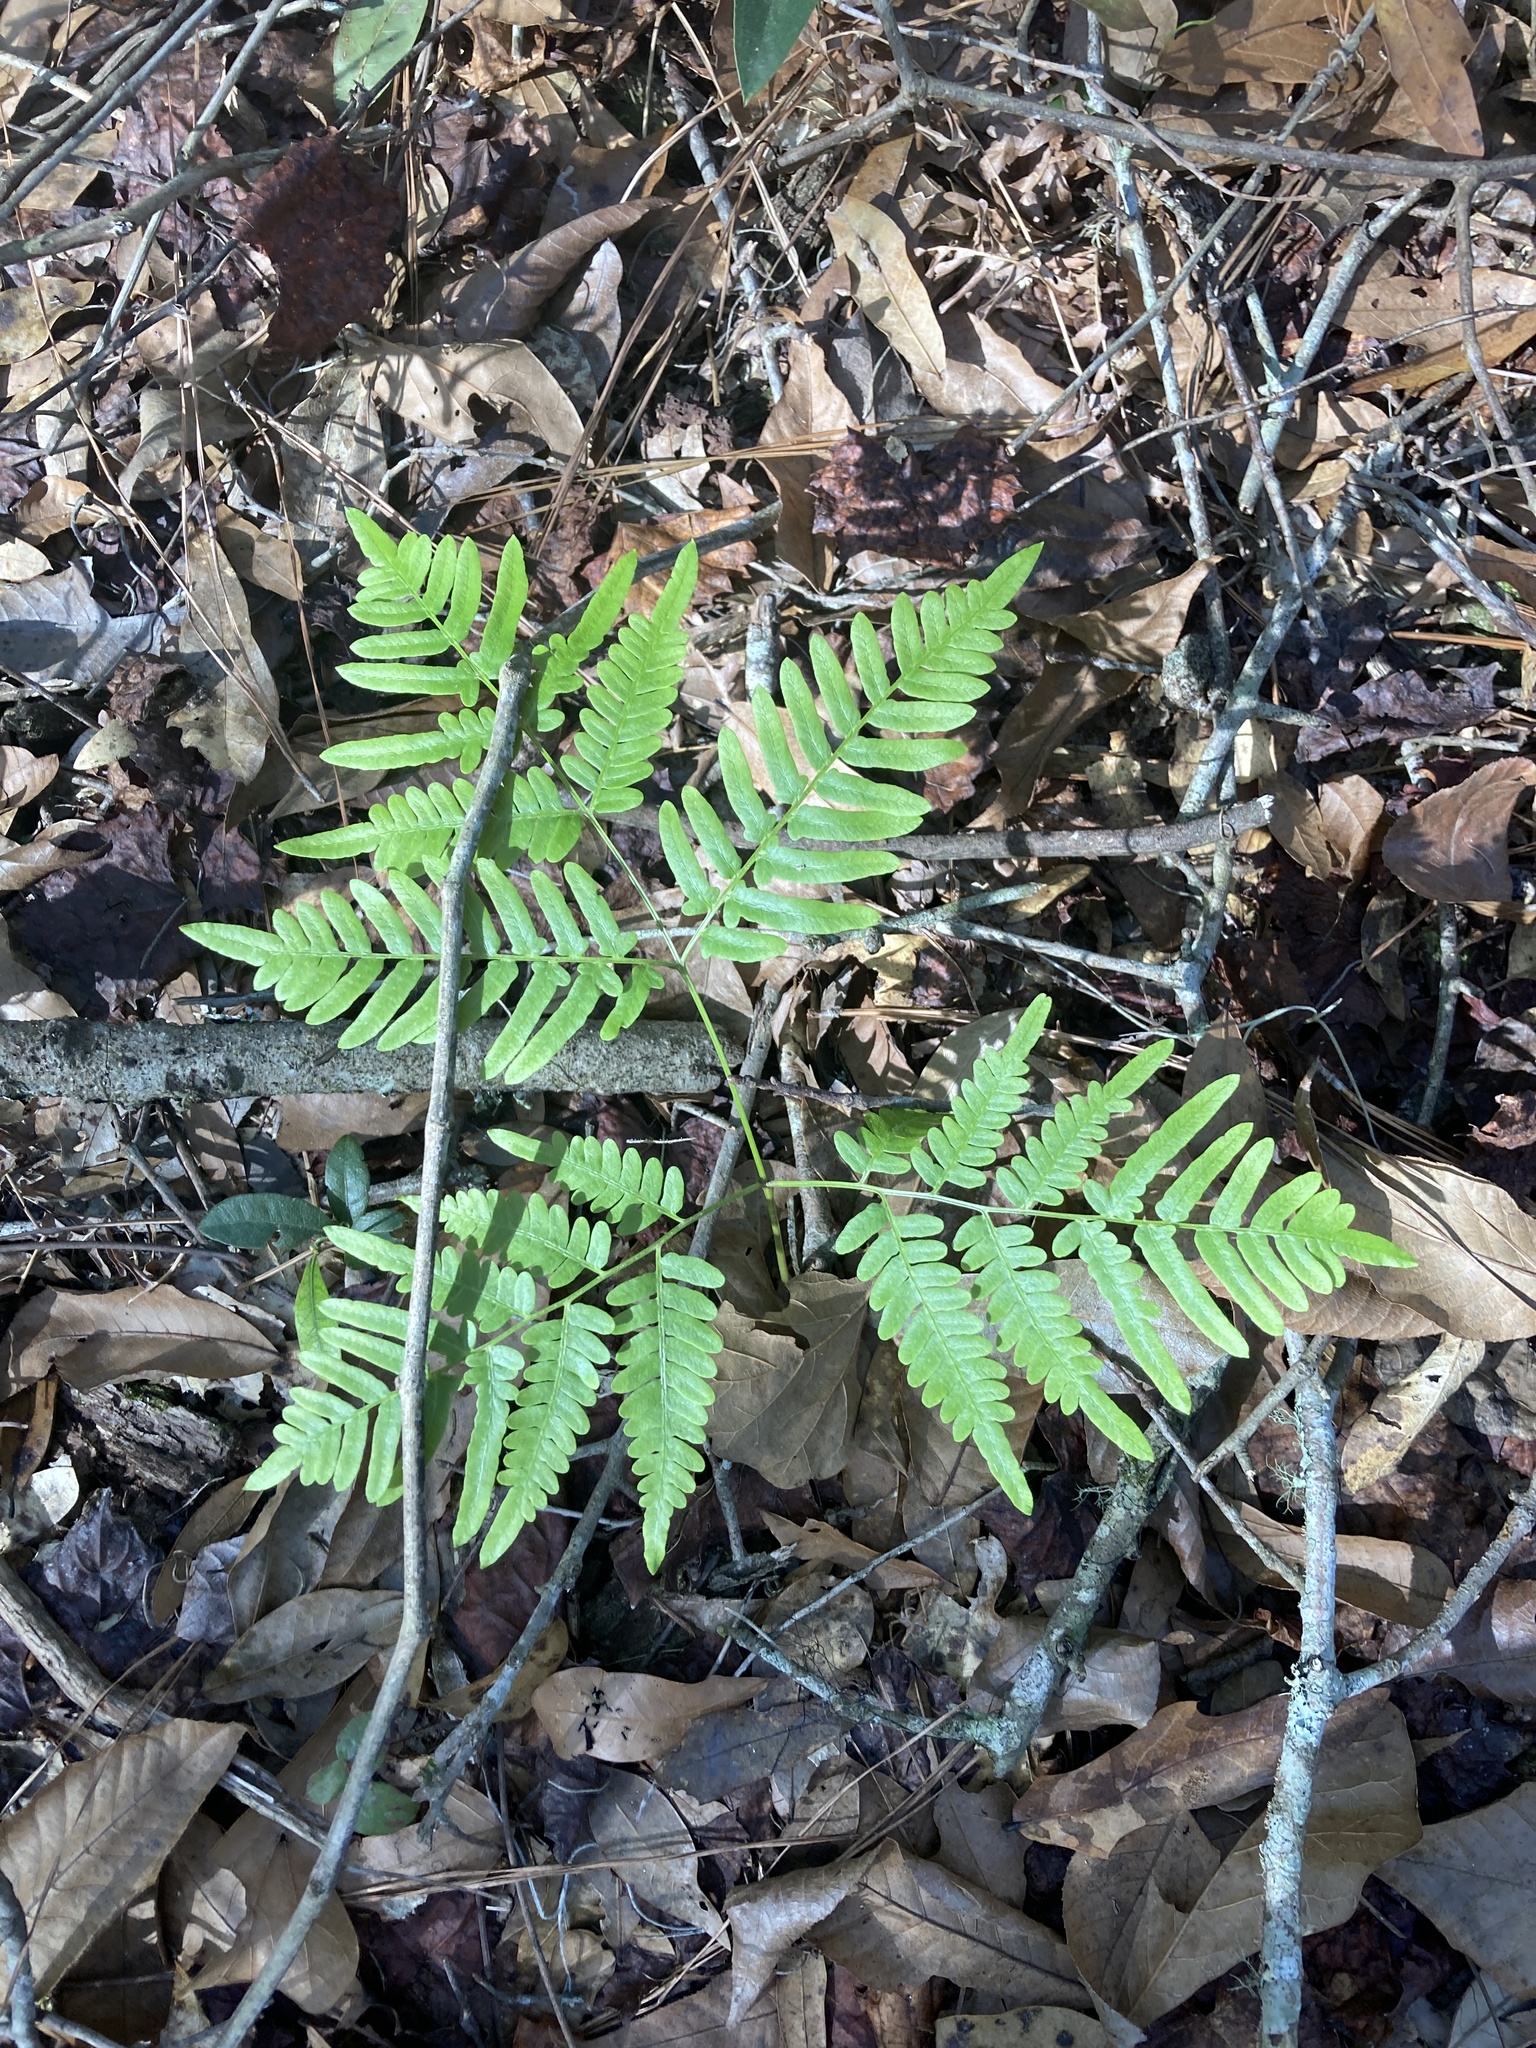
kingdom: Plantae
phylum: Tracheophyta
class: Polypodiopsida
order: Polypodiales
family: Dennstaedtiaceae
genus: Pteridium
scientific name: Pteridium
